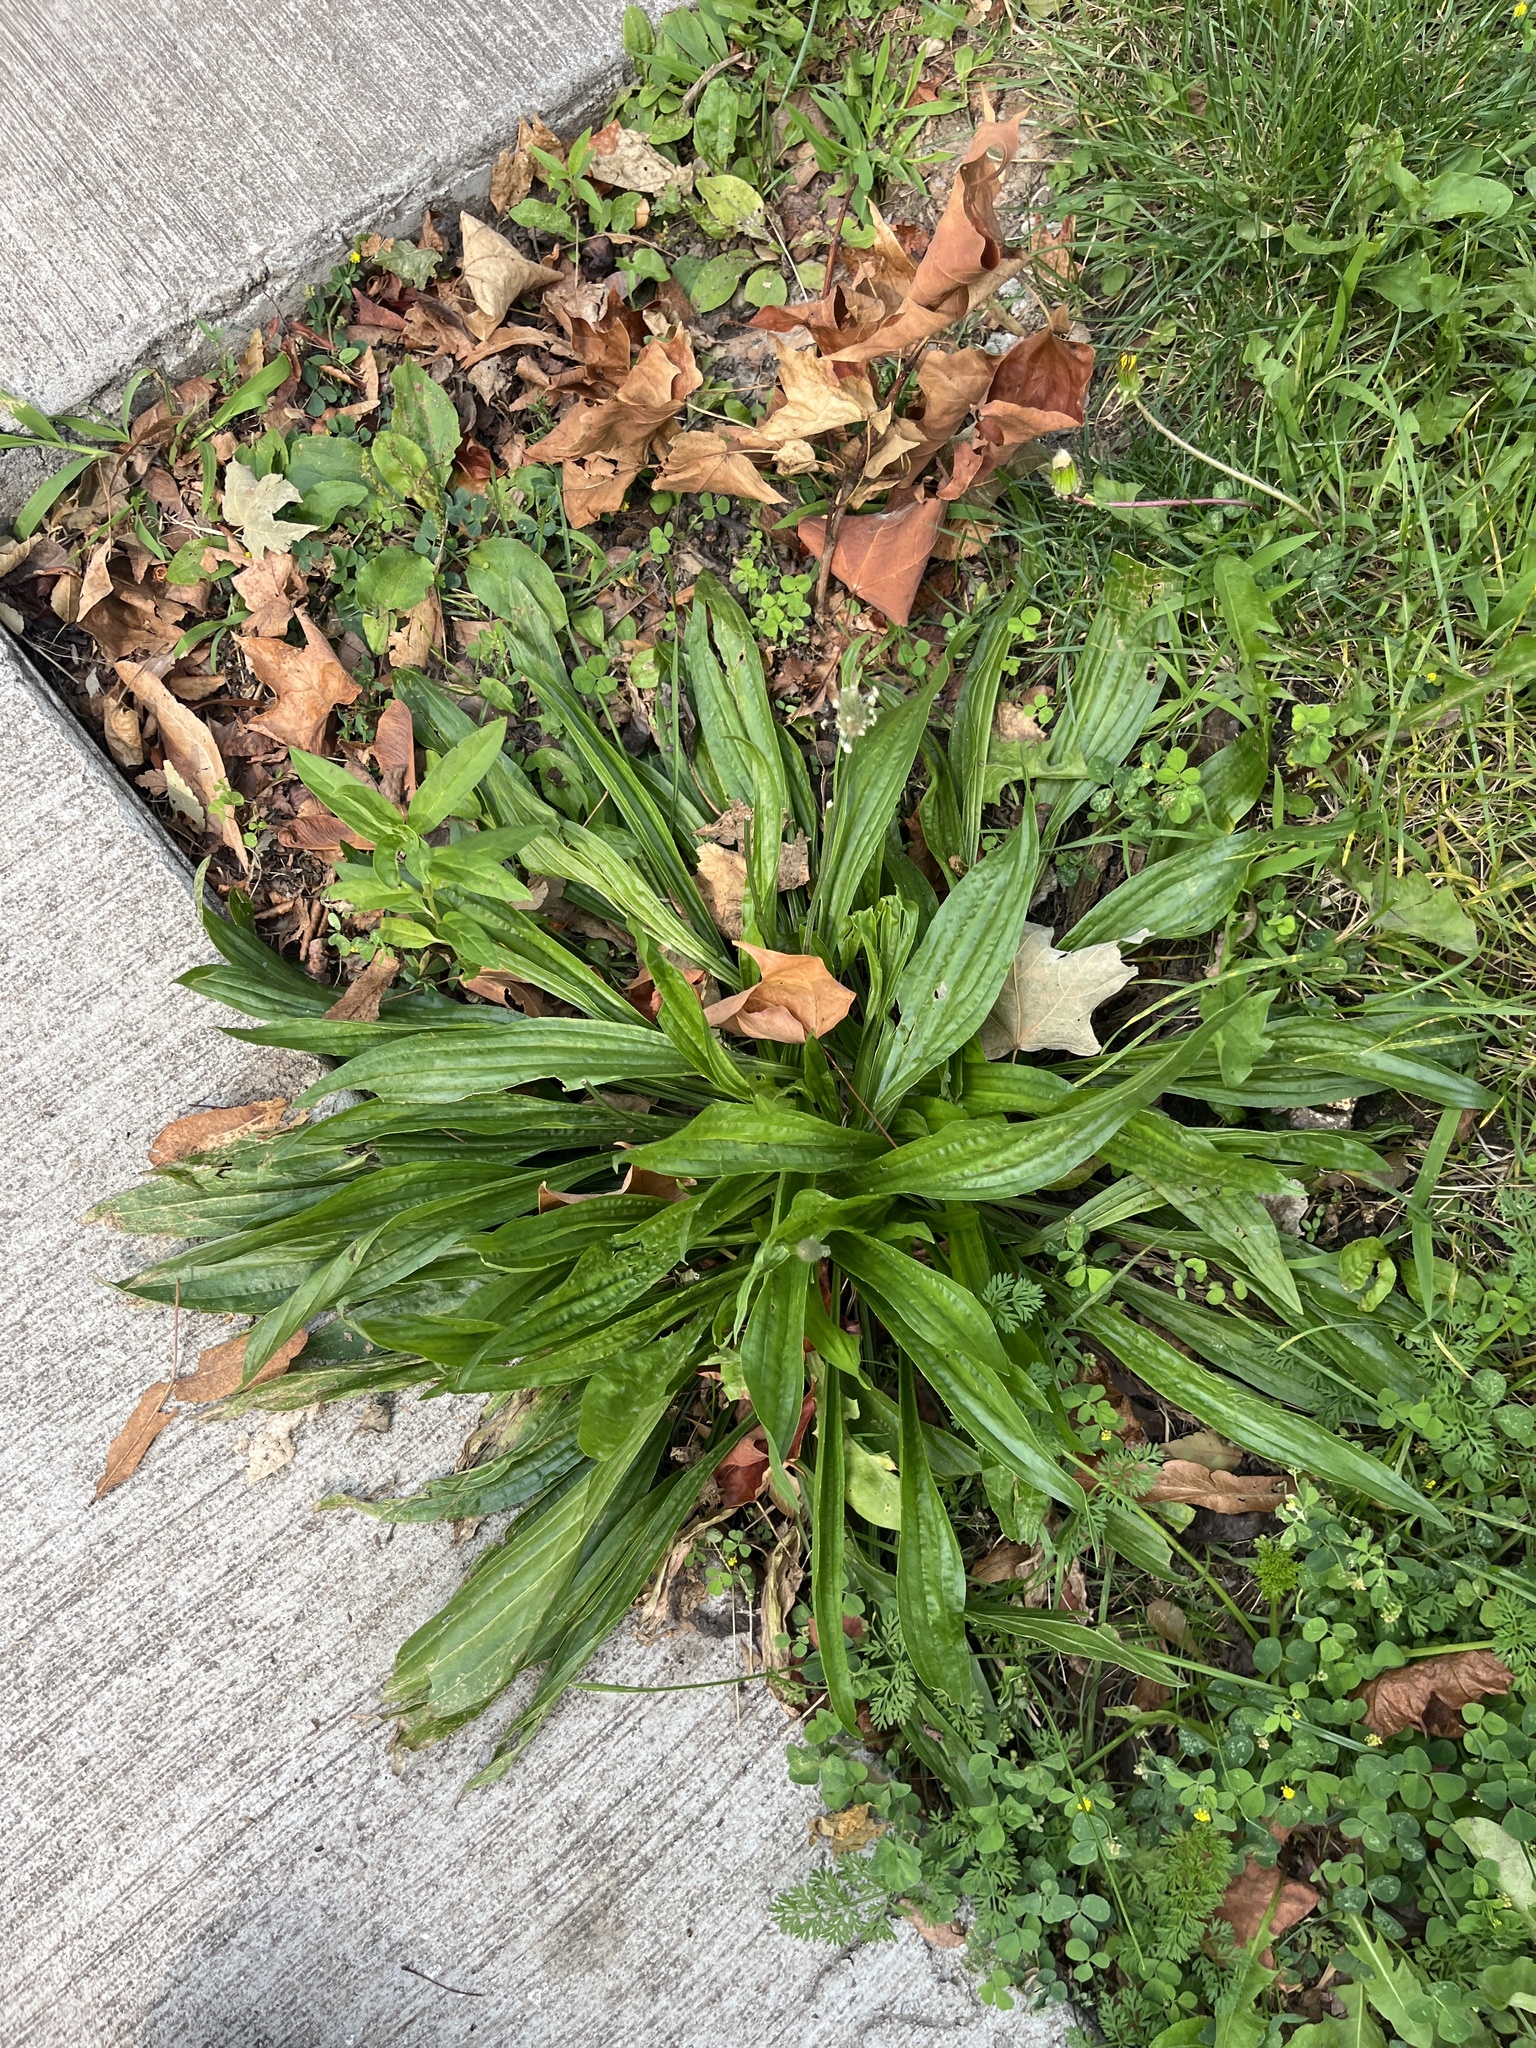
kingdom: Plantae
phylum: Tracheophyta
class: Magnoliopsida
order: Lamiales
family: Plantaginaceae
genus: Plantago
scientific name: Plantago lanceolata
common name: Ribwort plantain
